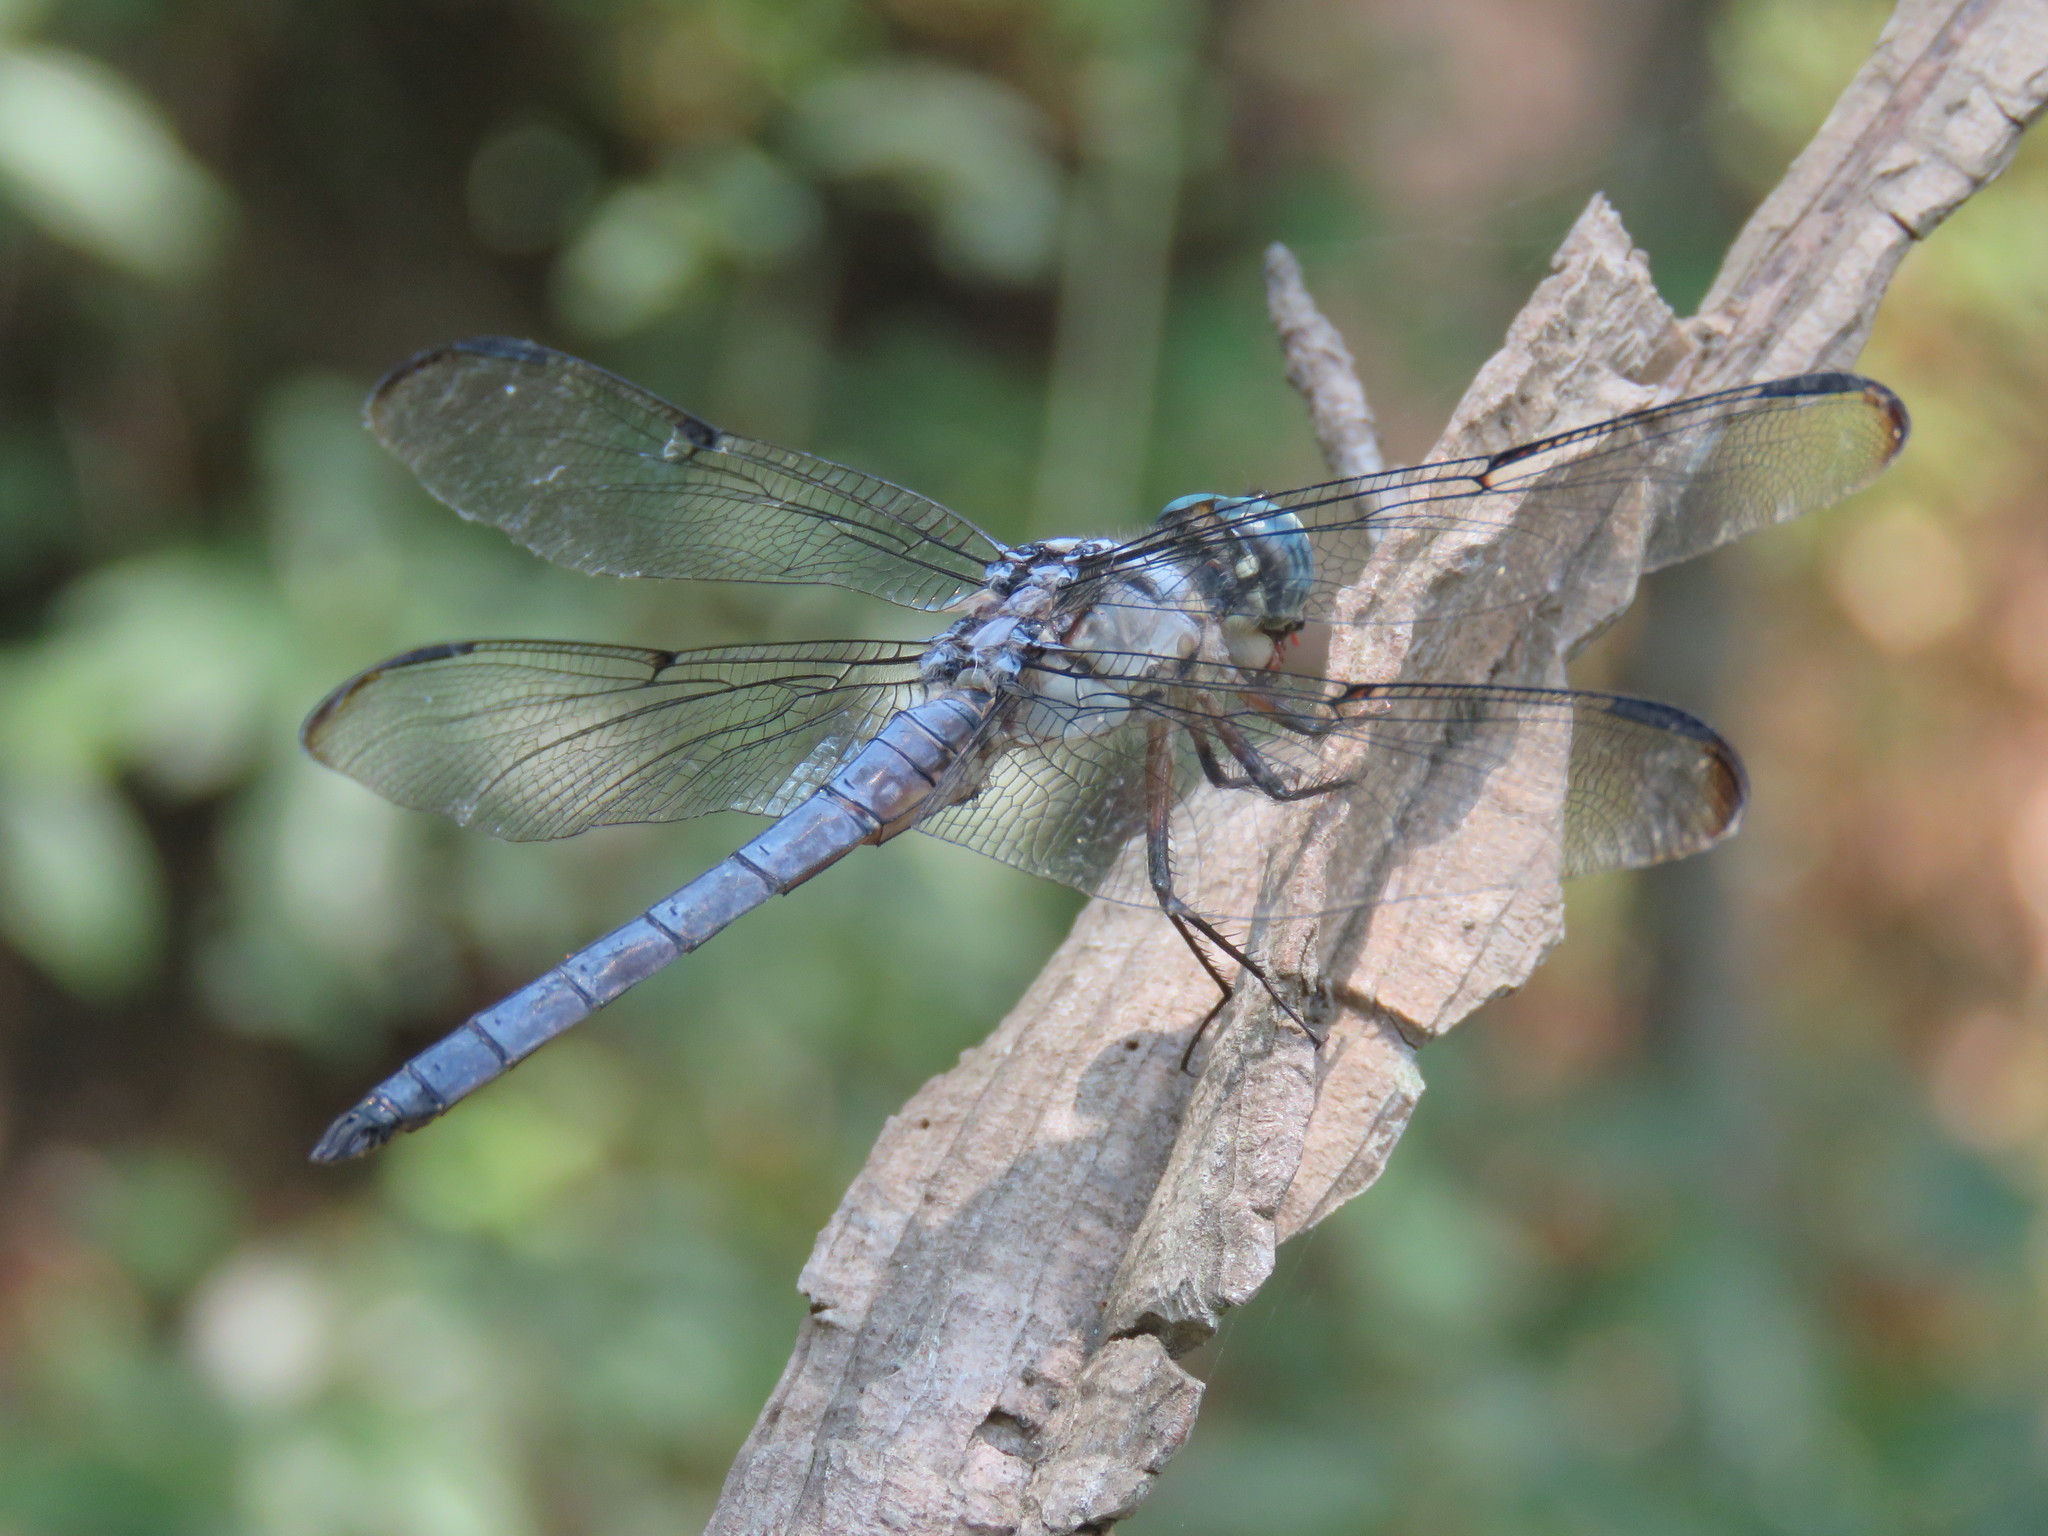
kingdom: Animalia
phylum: Arthropoda
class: Insecta
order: Odonata
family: Libellulidae
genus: Libellula
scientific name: Libellula vibrans
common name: Great blue skimmer
